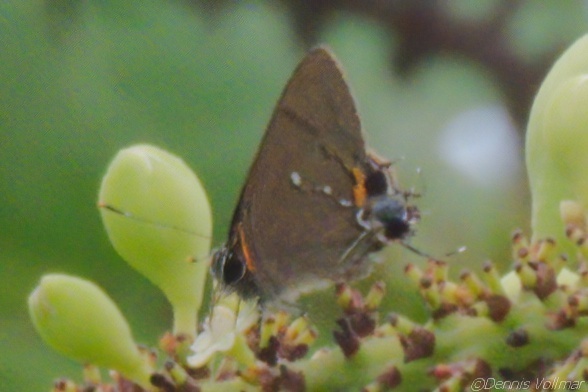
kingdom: Animalia
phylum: Arthropoda
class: Insecta
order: Lepidoptera
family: Lycaenidae
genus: Thecla
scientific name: Thecla angelia
